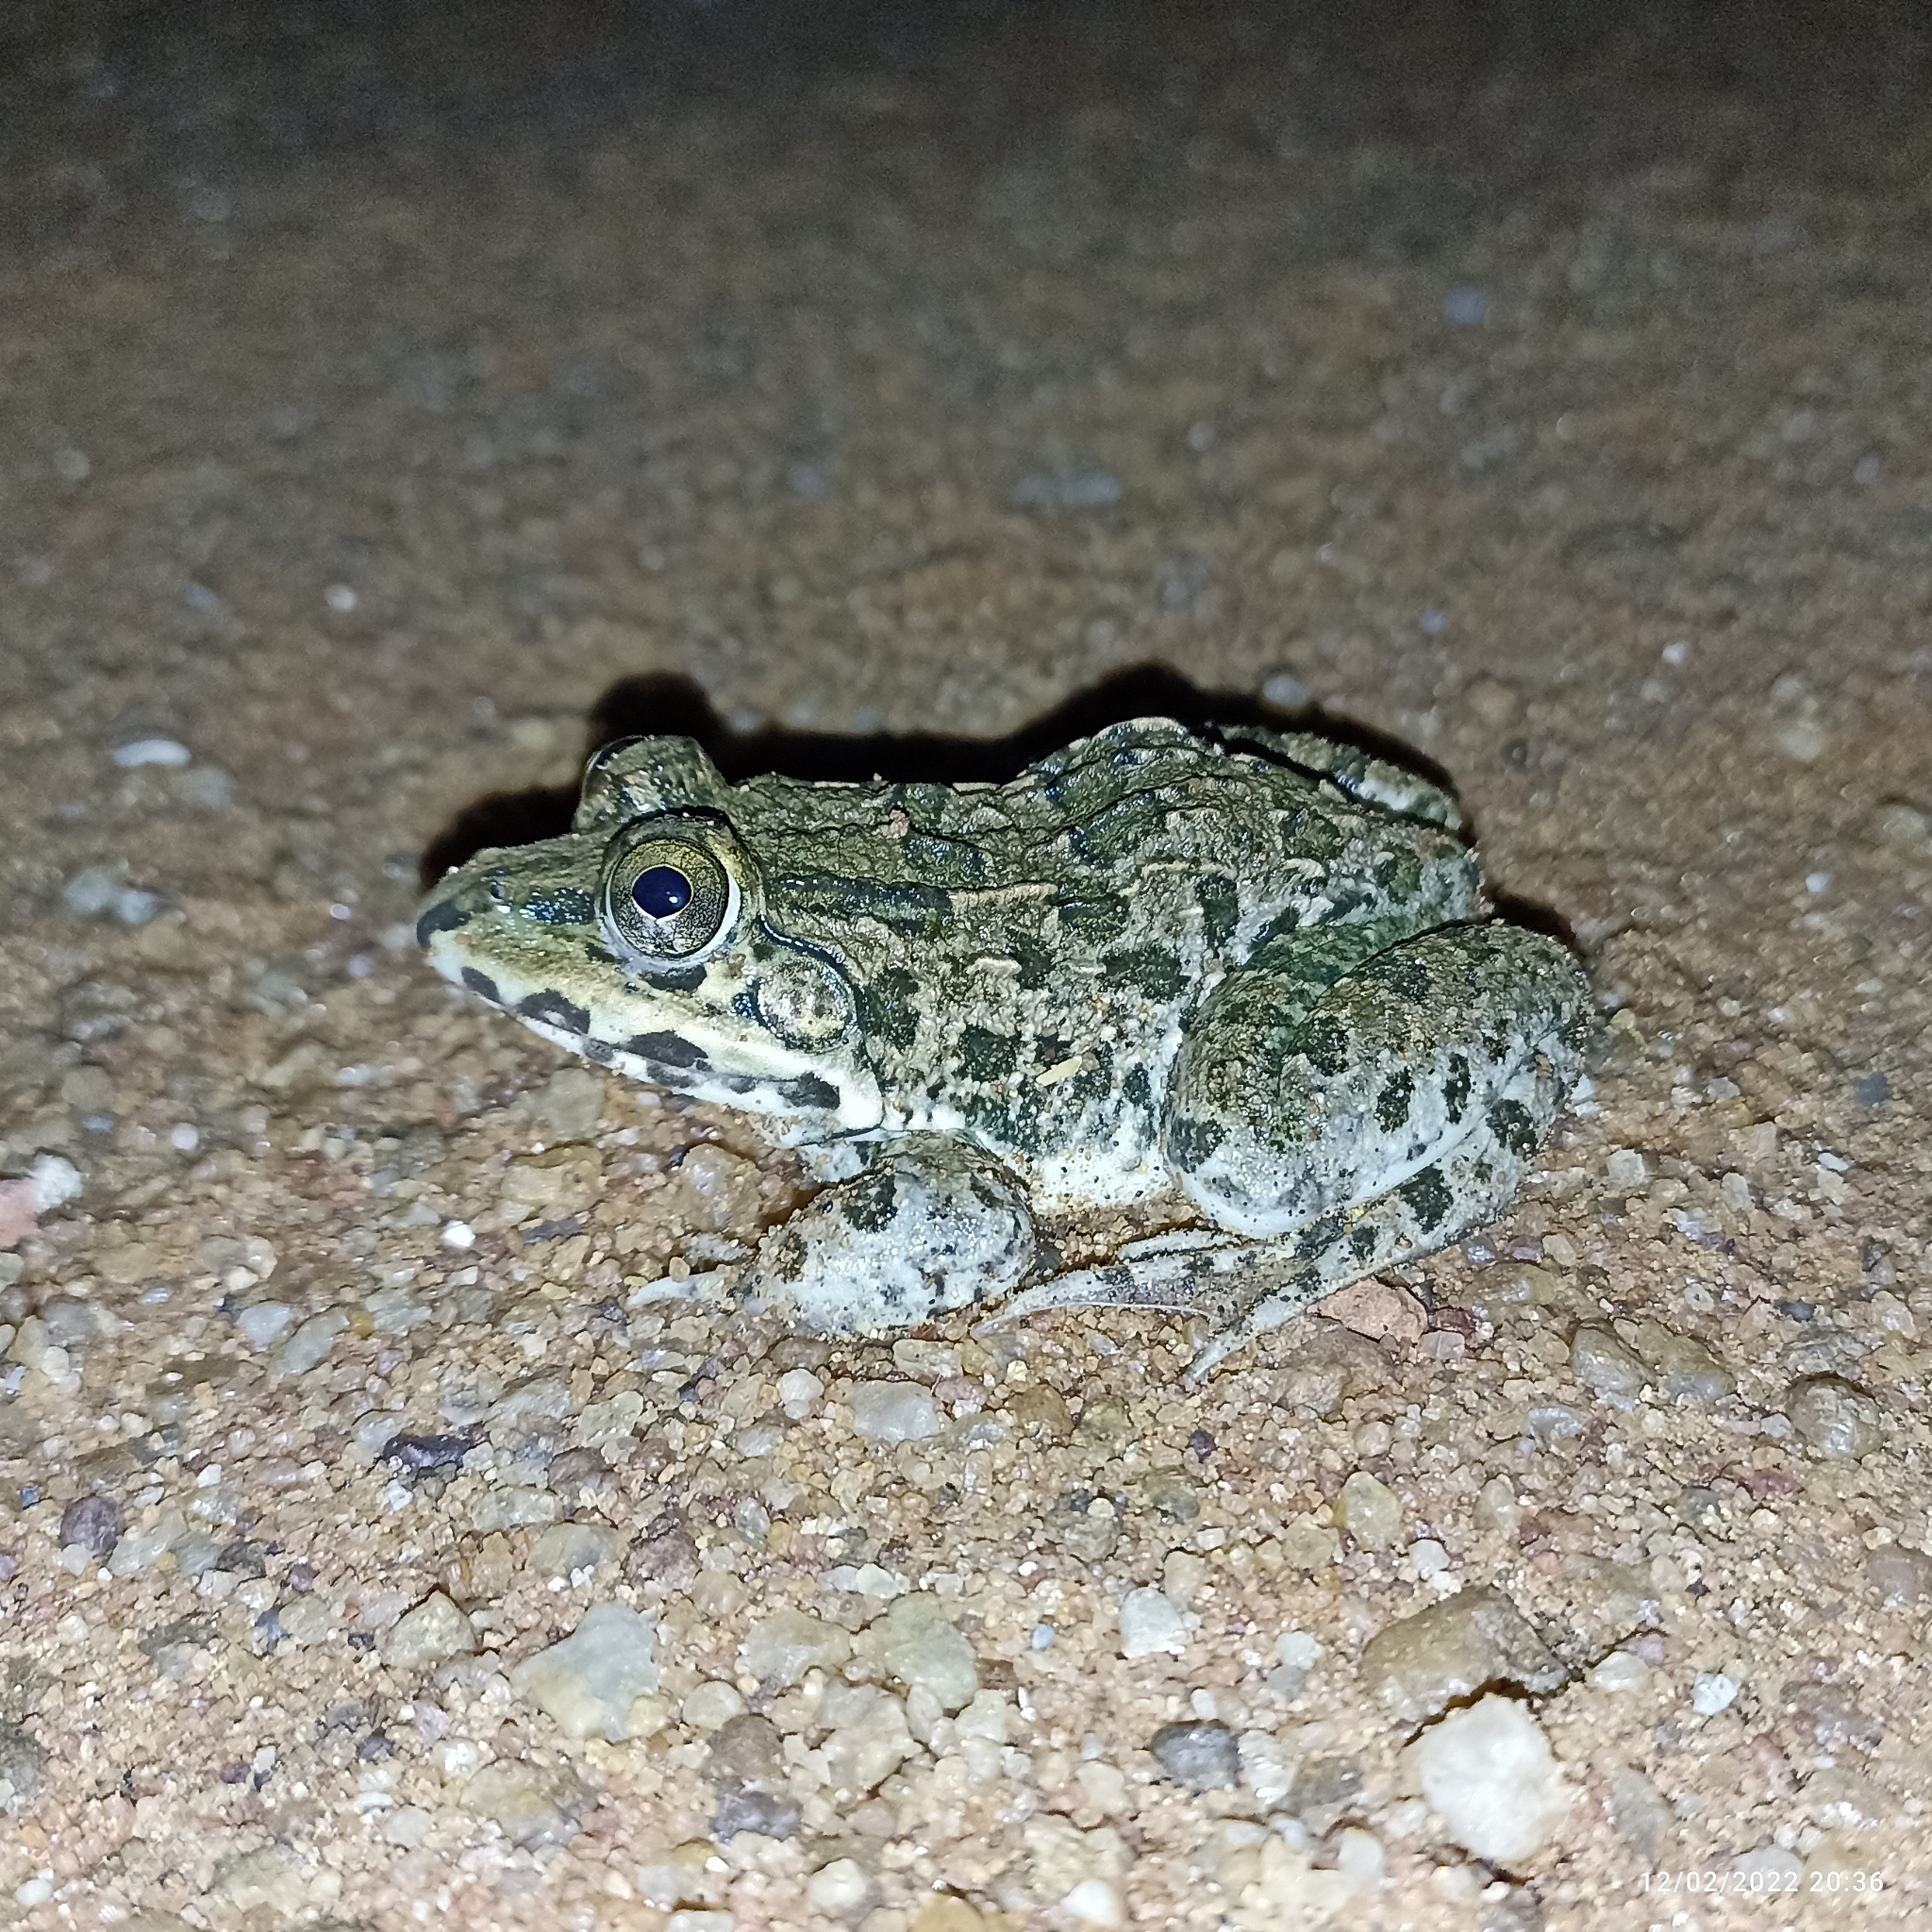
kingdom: Animalia
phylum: Chordata
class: Amphibia
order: Anura
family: Dicroglossidae
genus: Hoplobatrachus
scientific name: Hoplobatrachus crassus
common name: Jerdon's bullfrog
